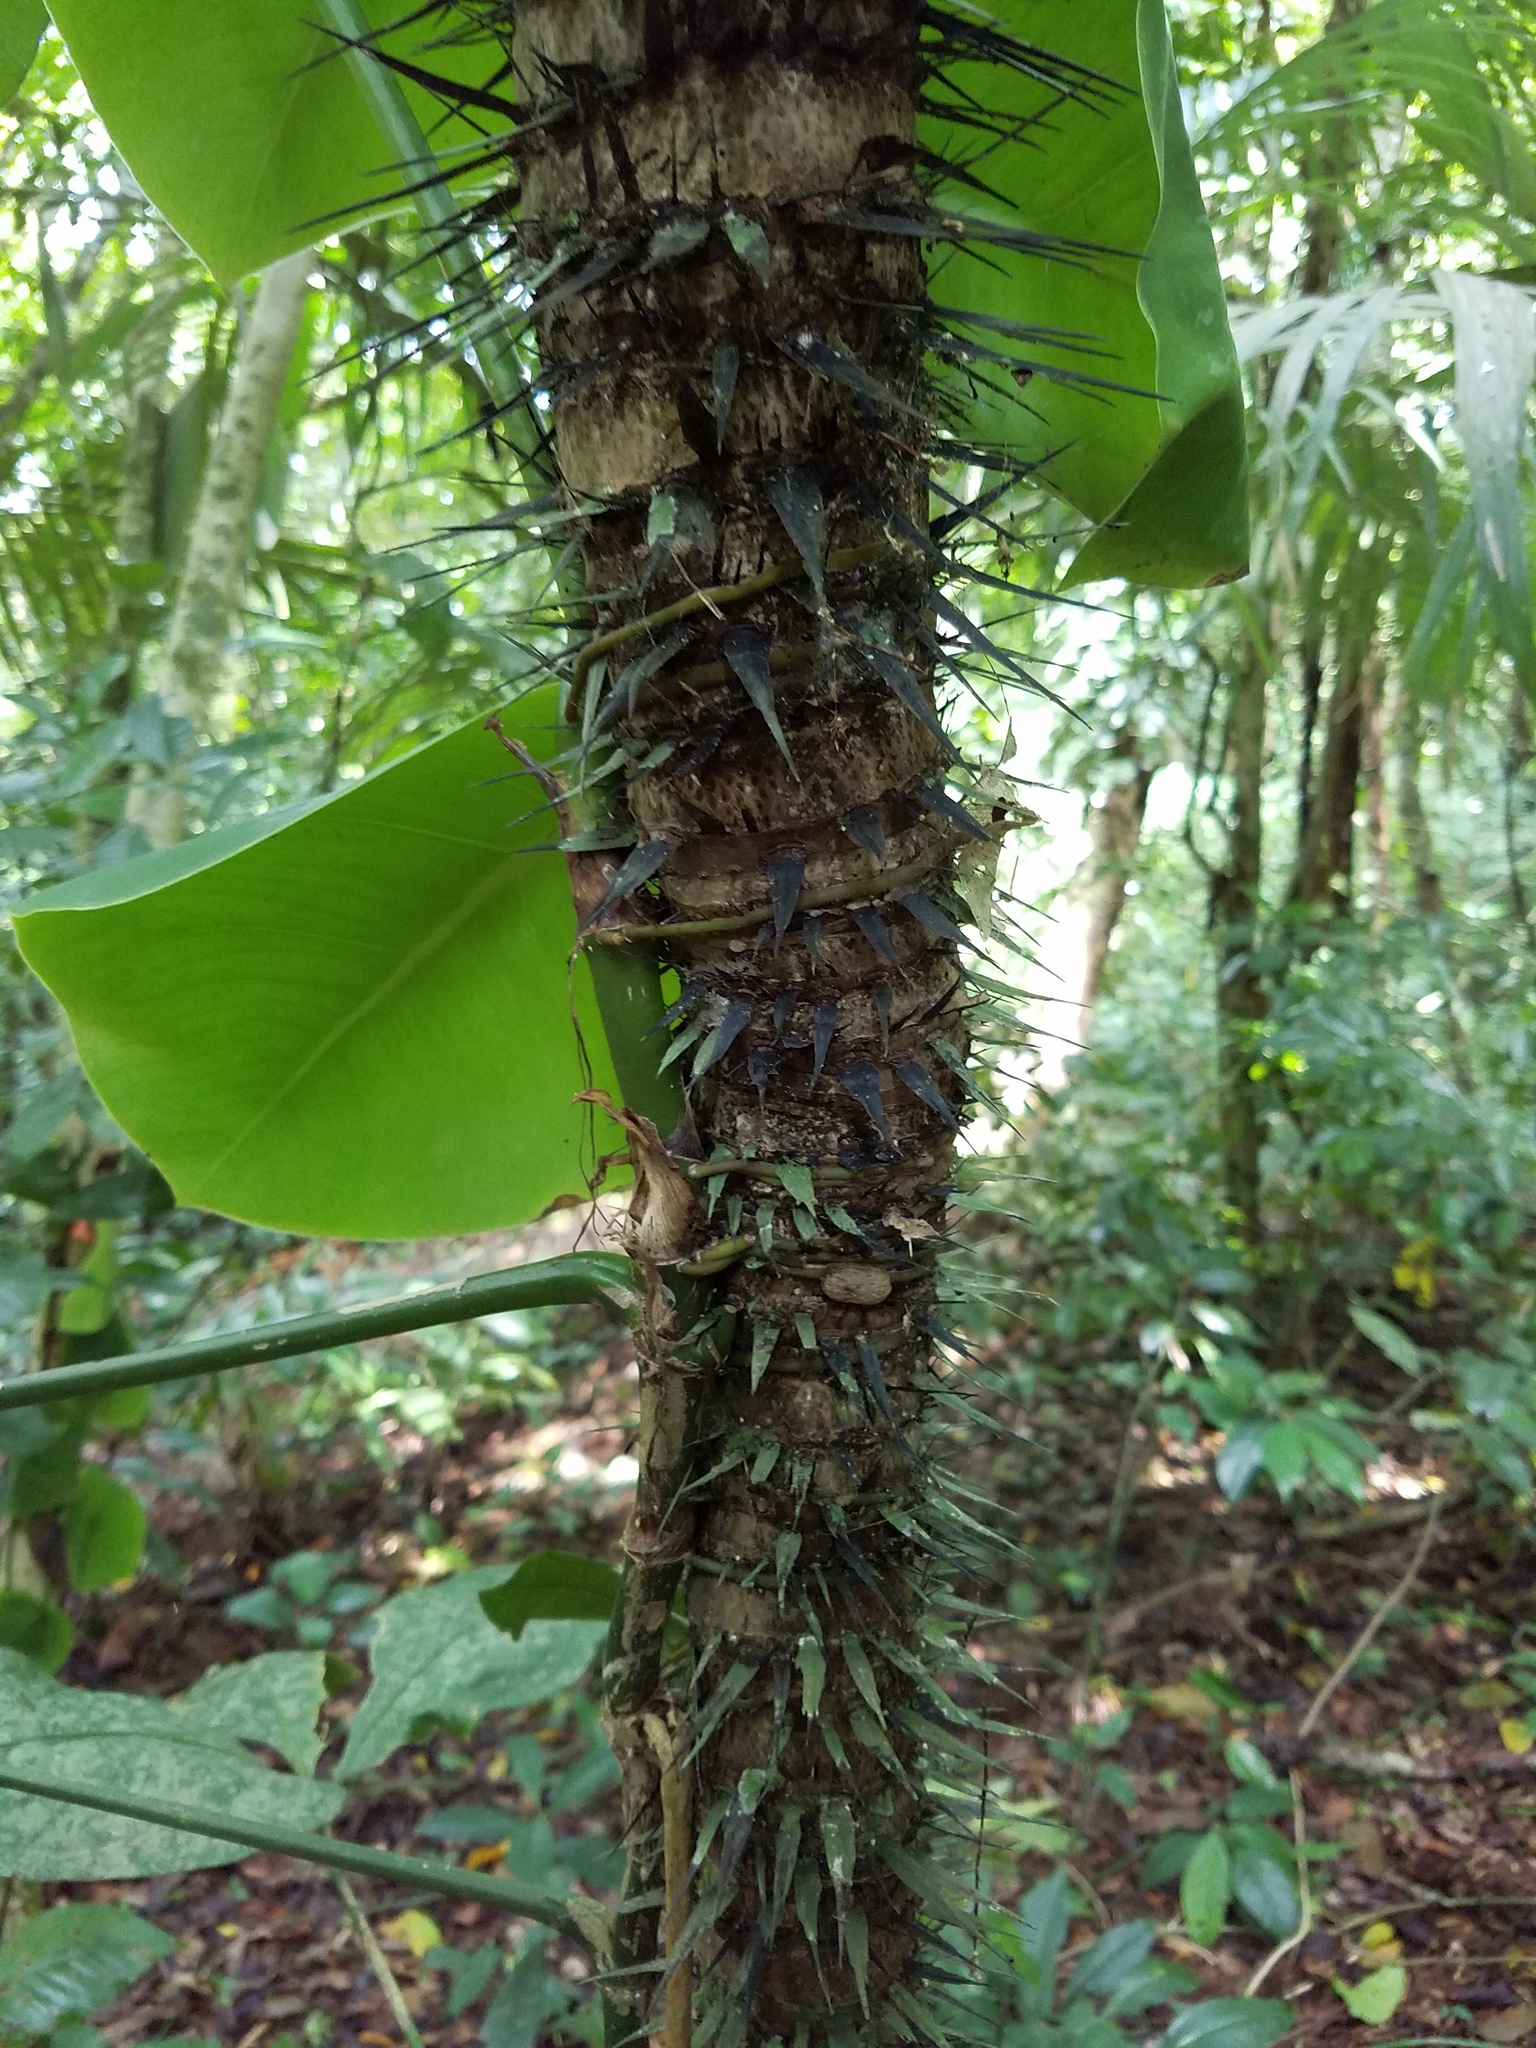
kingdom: Plantae
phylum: Tracheophyta
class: Liliopsida
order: Arecales
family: Arecaceae
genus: Astrocaryum
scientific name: Astrocaryum mexicanum
